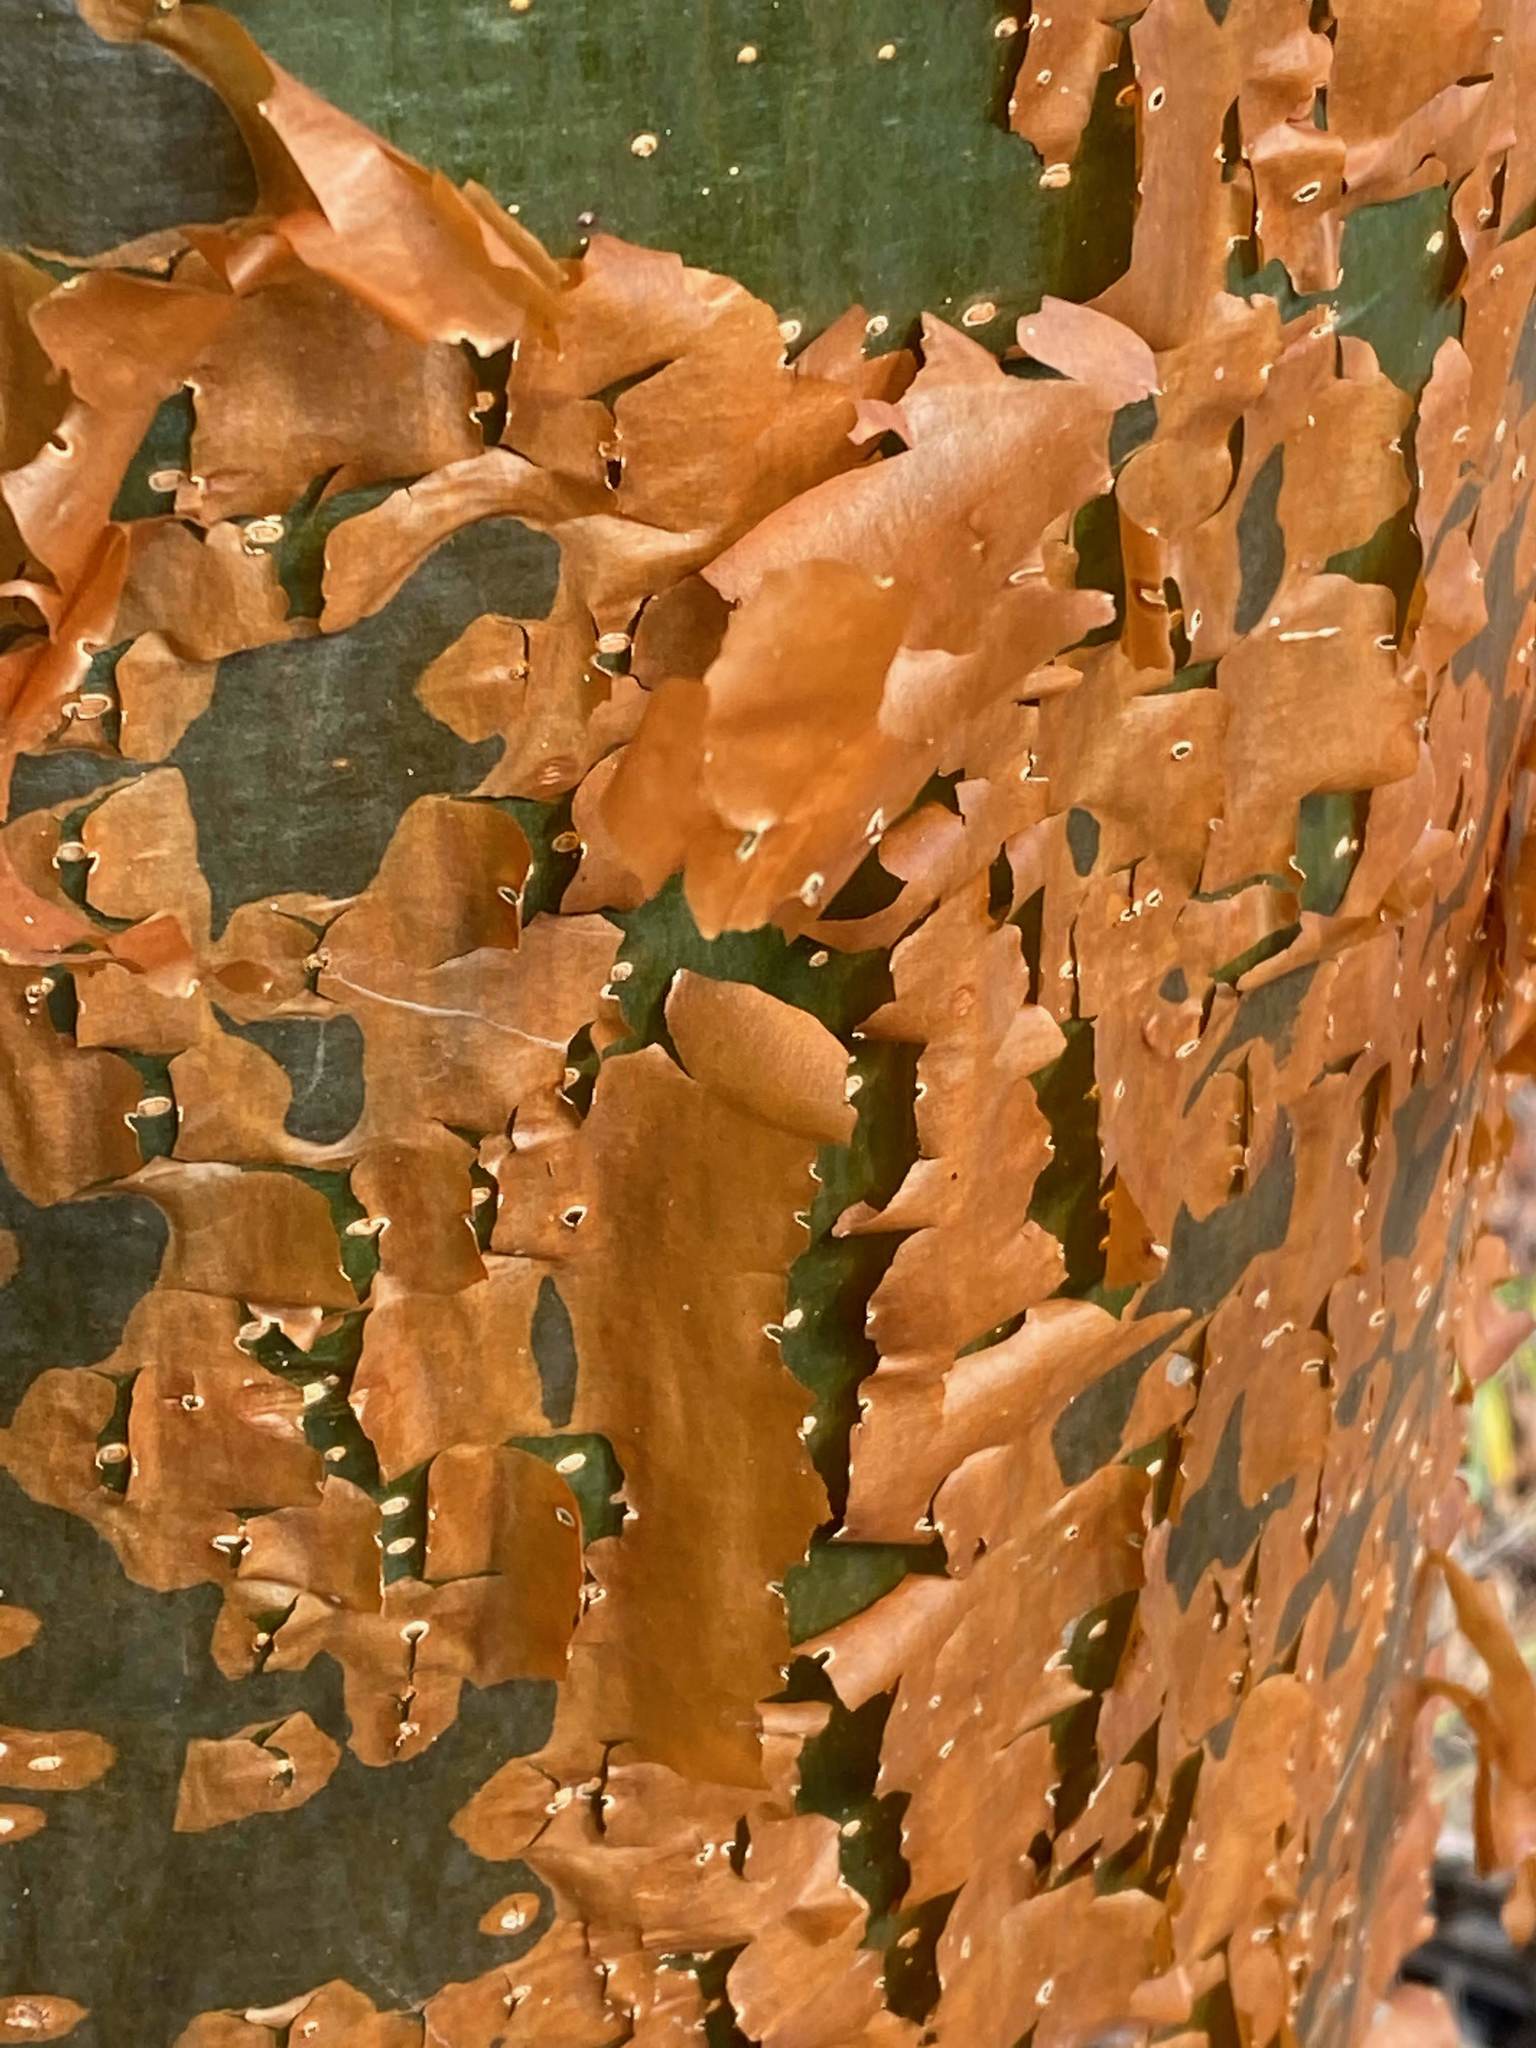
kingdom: Plantae
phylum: Tracheophyta
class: Magnoliopsida
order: Sapindales
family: Burseraceae
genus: Bursera
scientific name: Bursera simaruba
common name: Turpentine tree
